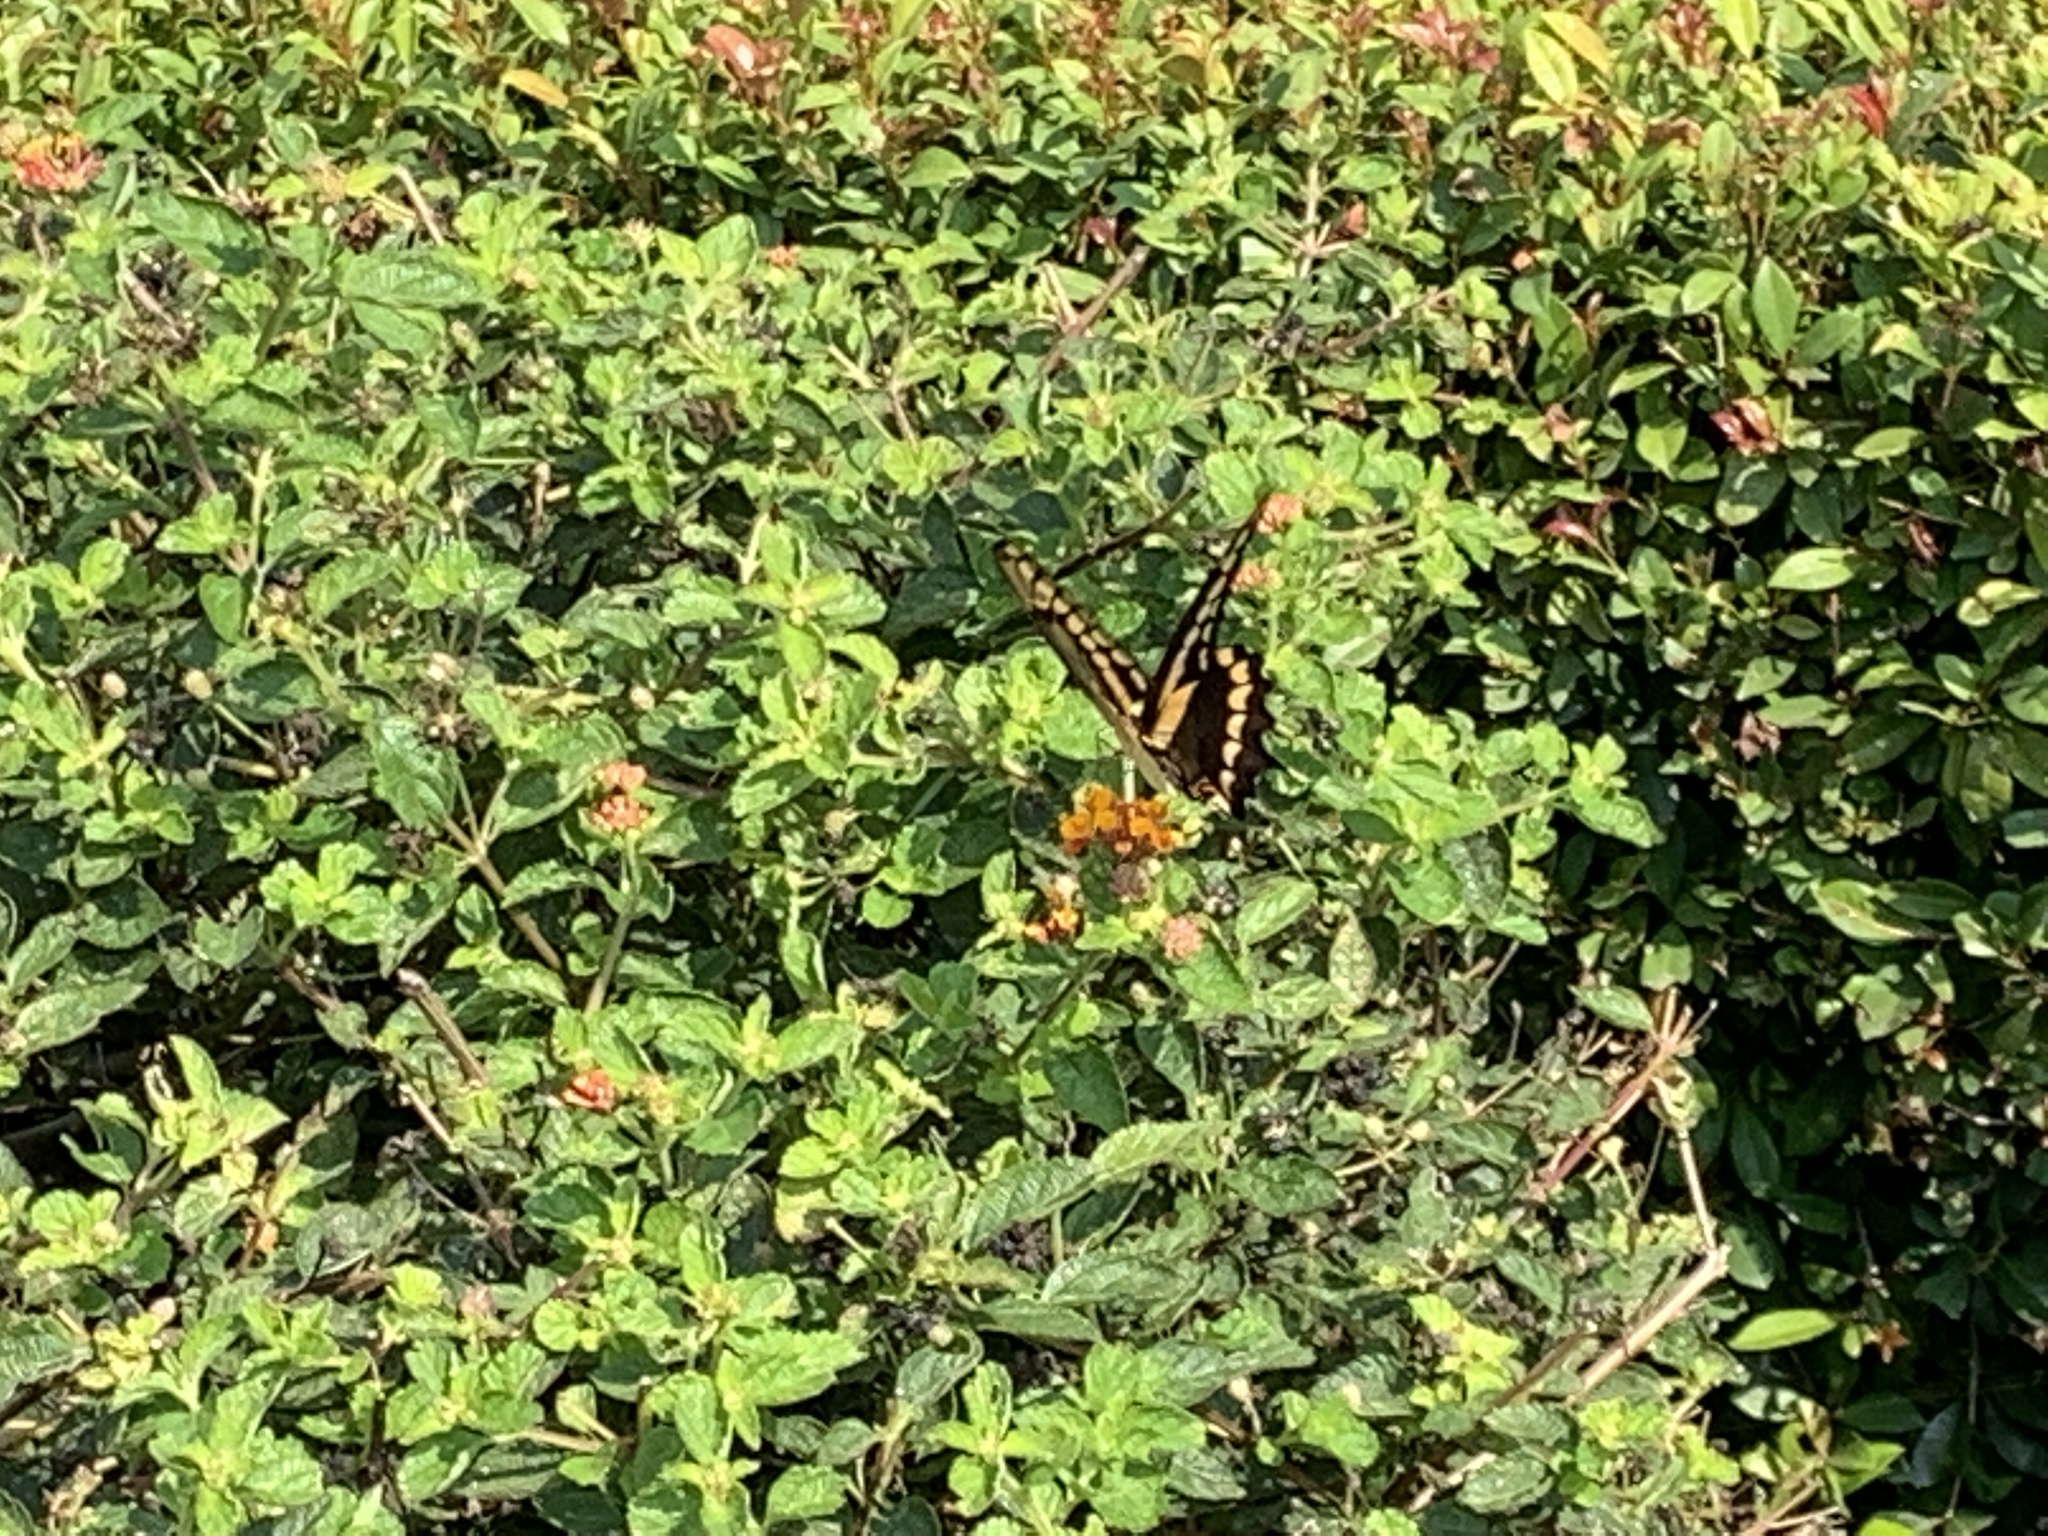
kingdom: Animalia
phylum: Arthropoda
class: Insecta
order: Lepidoptera
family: Papilionidae
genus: Papilio
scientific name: Papilio rumiko
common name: Western giant swallowtail
